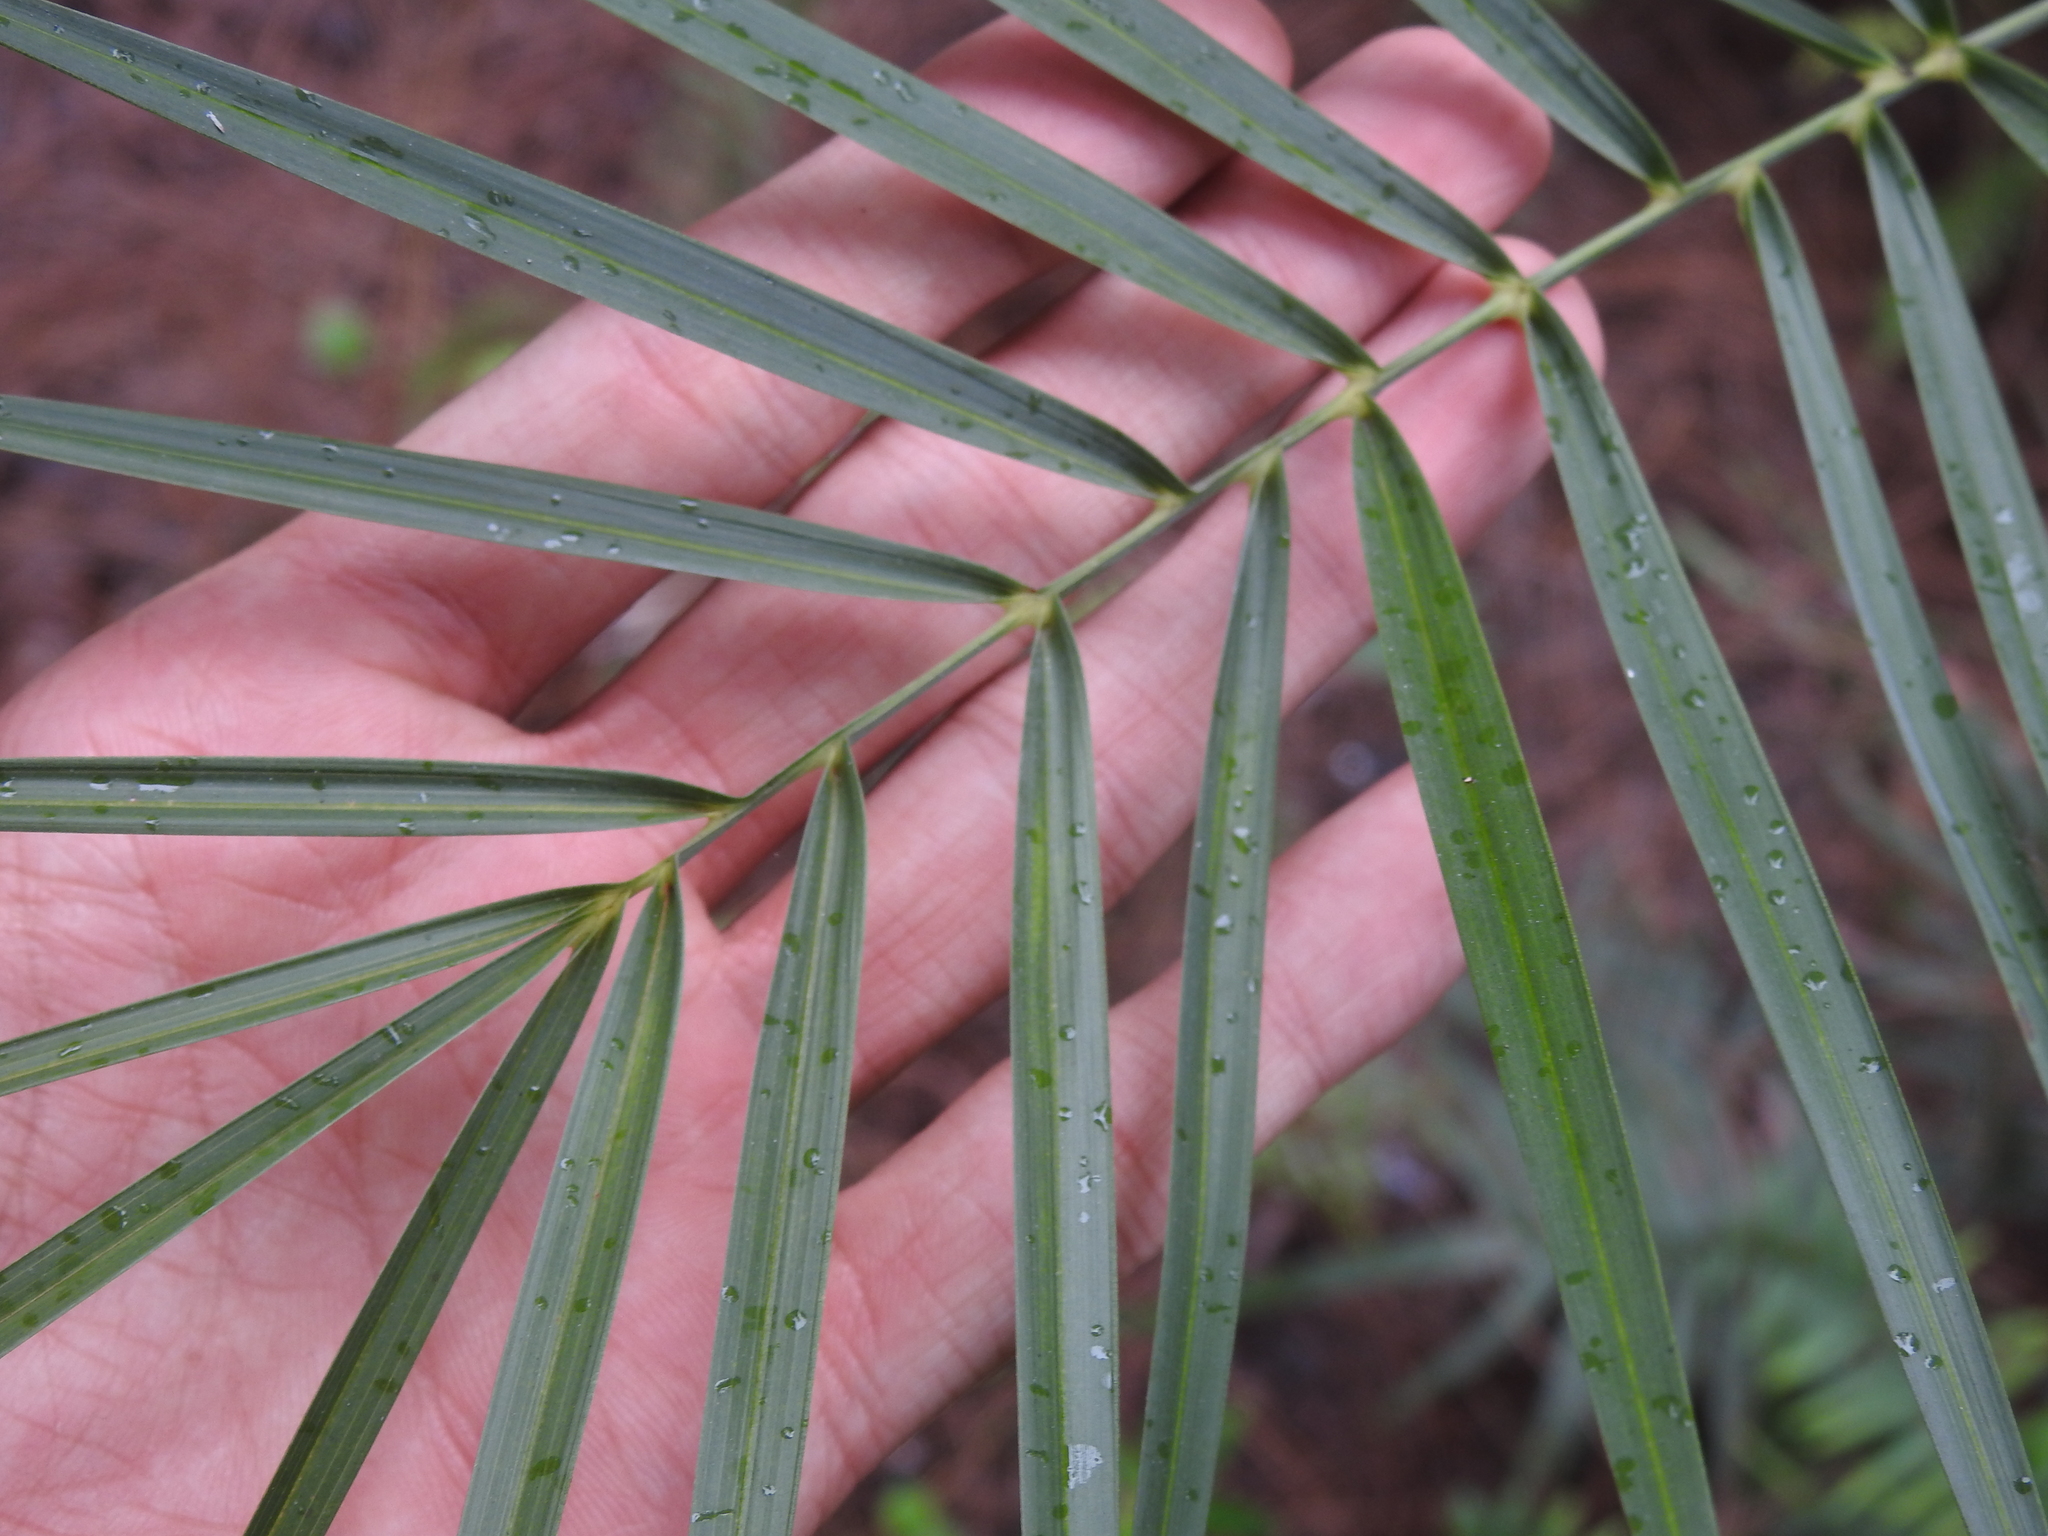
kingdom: Plantae
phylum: Tracheophyta
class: Liliopsida
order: Arecales
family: Arecaceae
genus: Phoenix
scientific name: Phoenix reclinata
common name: Senegal date palm
